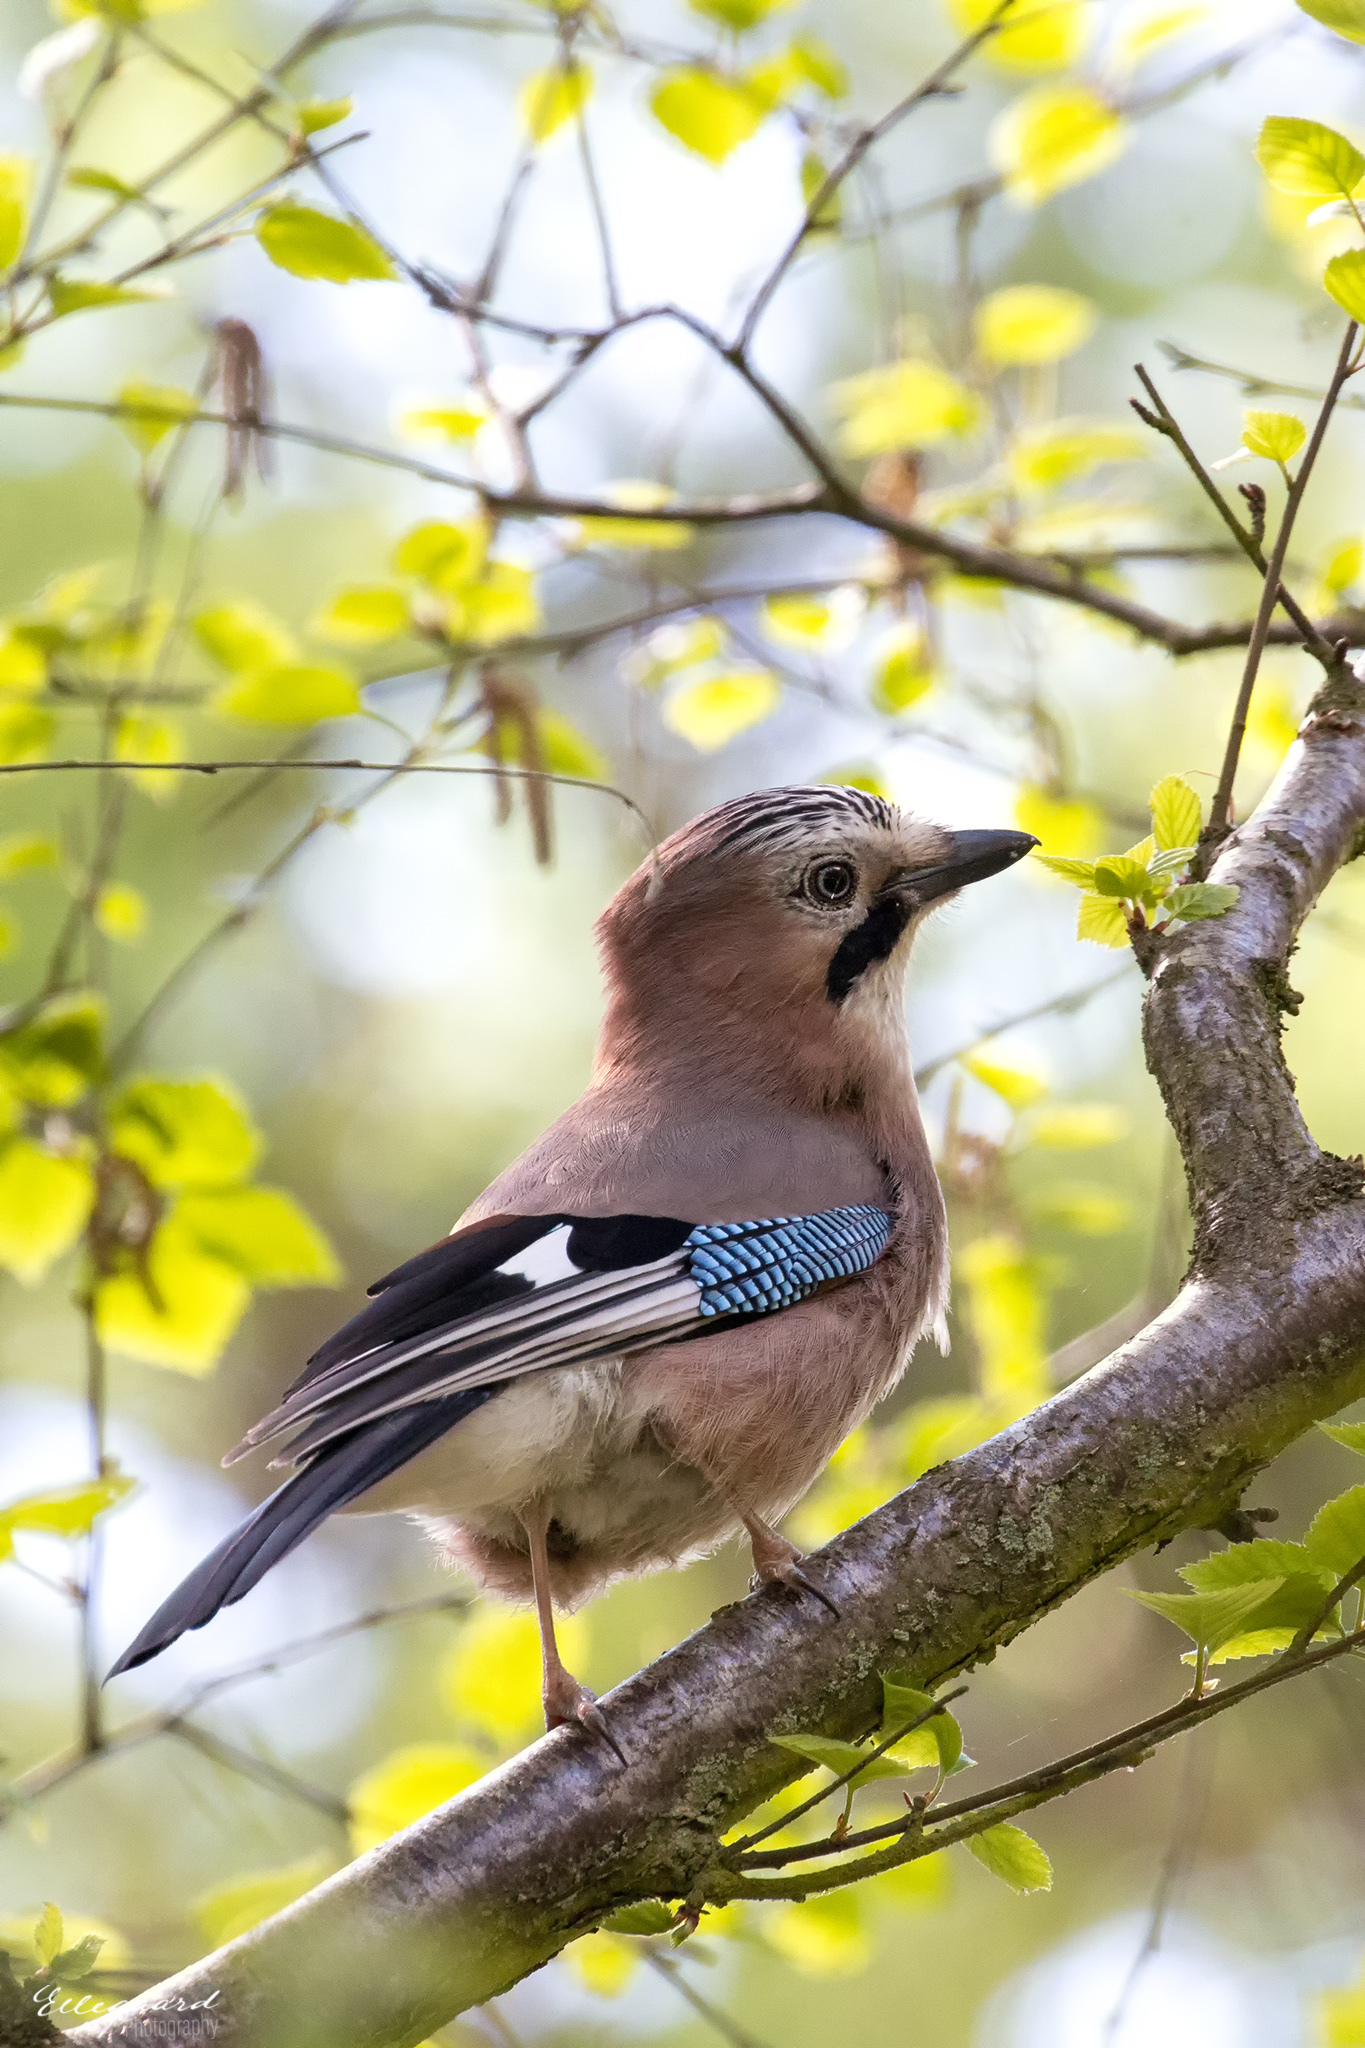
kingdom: Animalia
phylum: Chordata
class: Aves
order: Passeriformes
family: Corvidae
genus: Garrulus
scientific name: Garrulus glandarius
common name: Eurasian jay
